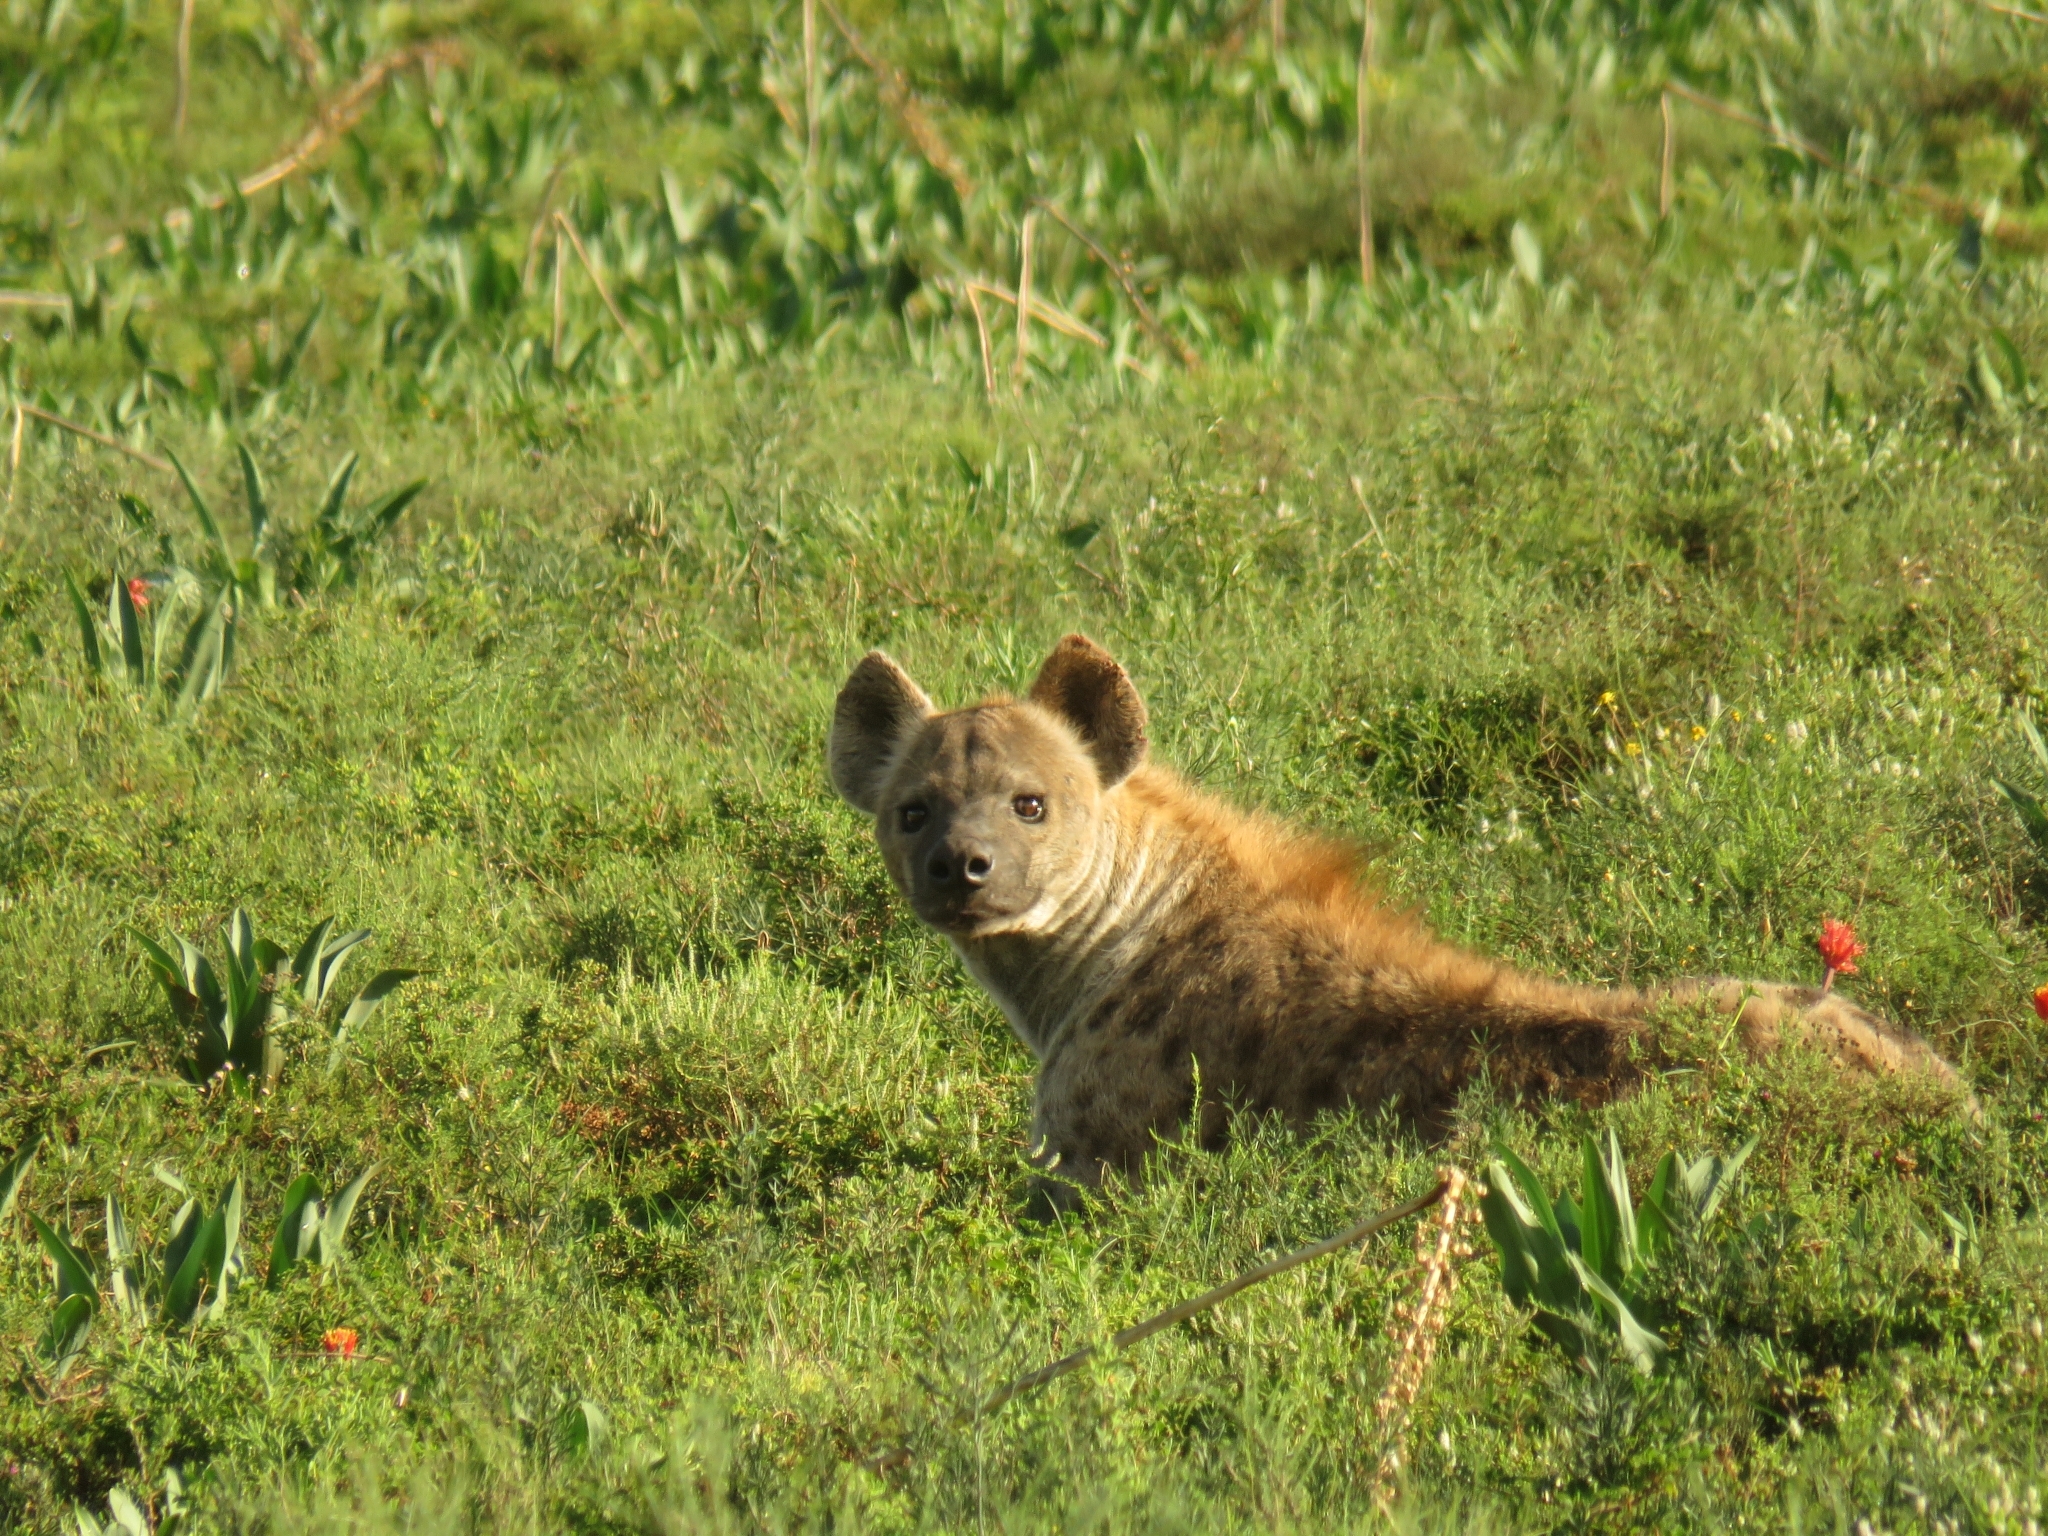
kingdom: Animalia
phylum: Chordata
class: Mammalia
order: Carnivora
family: Hyaenidae
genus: Crocuta
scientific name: Crocuta crocuta
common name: Spotted hyaena
